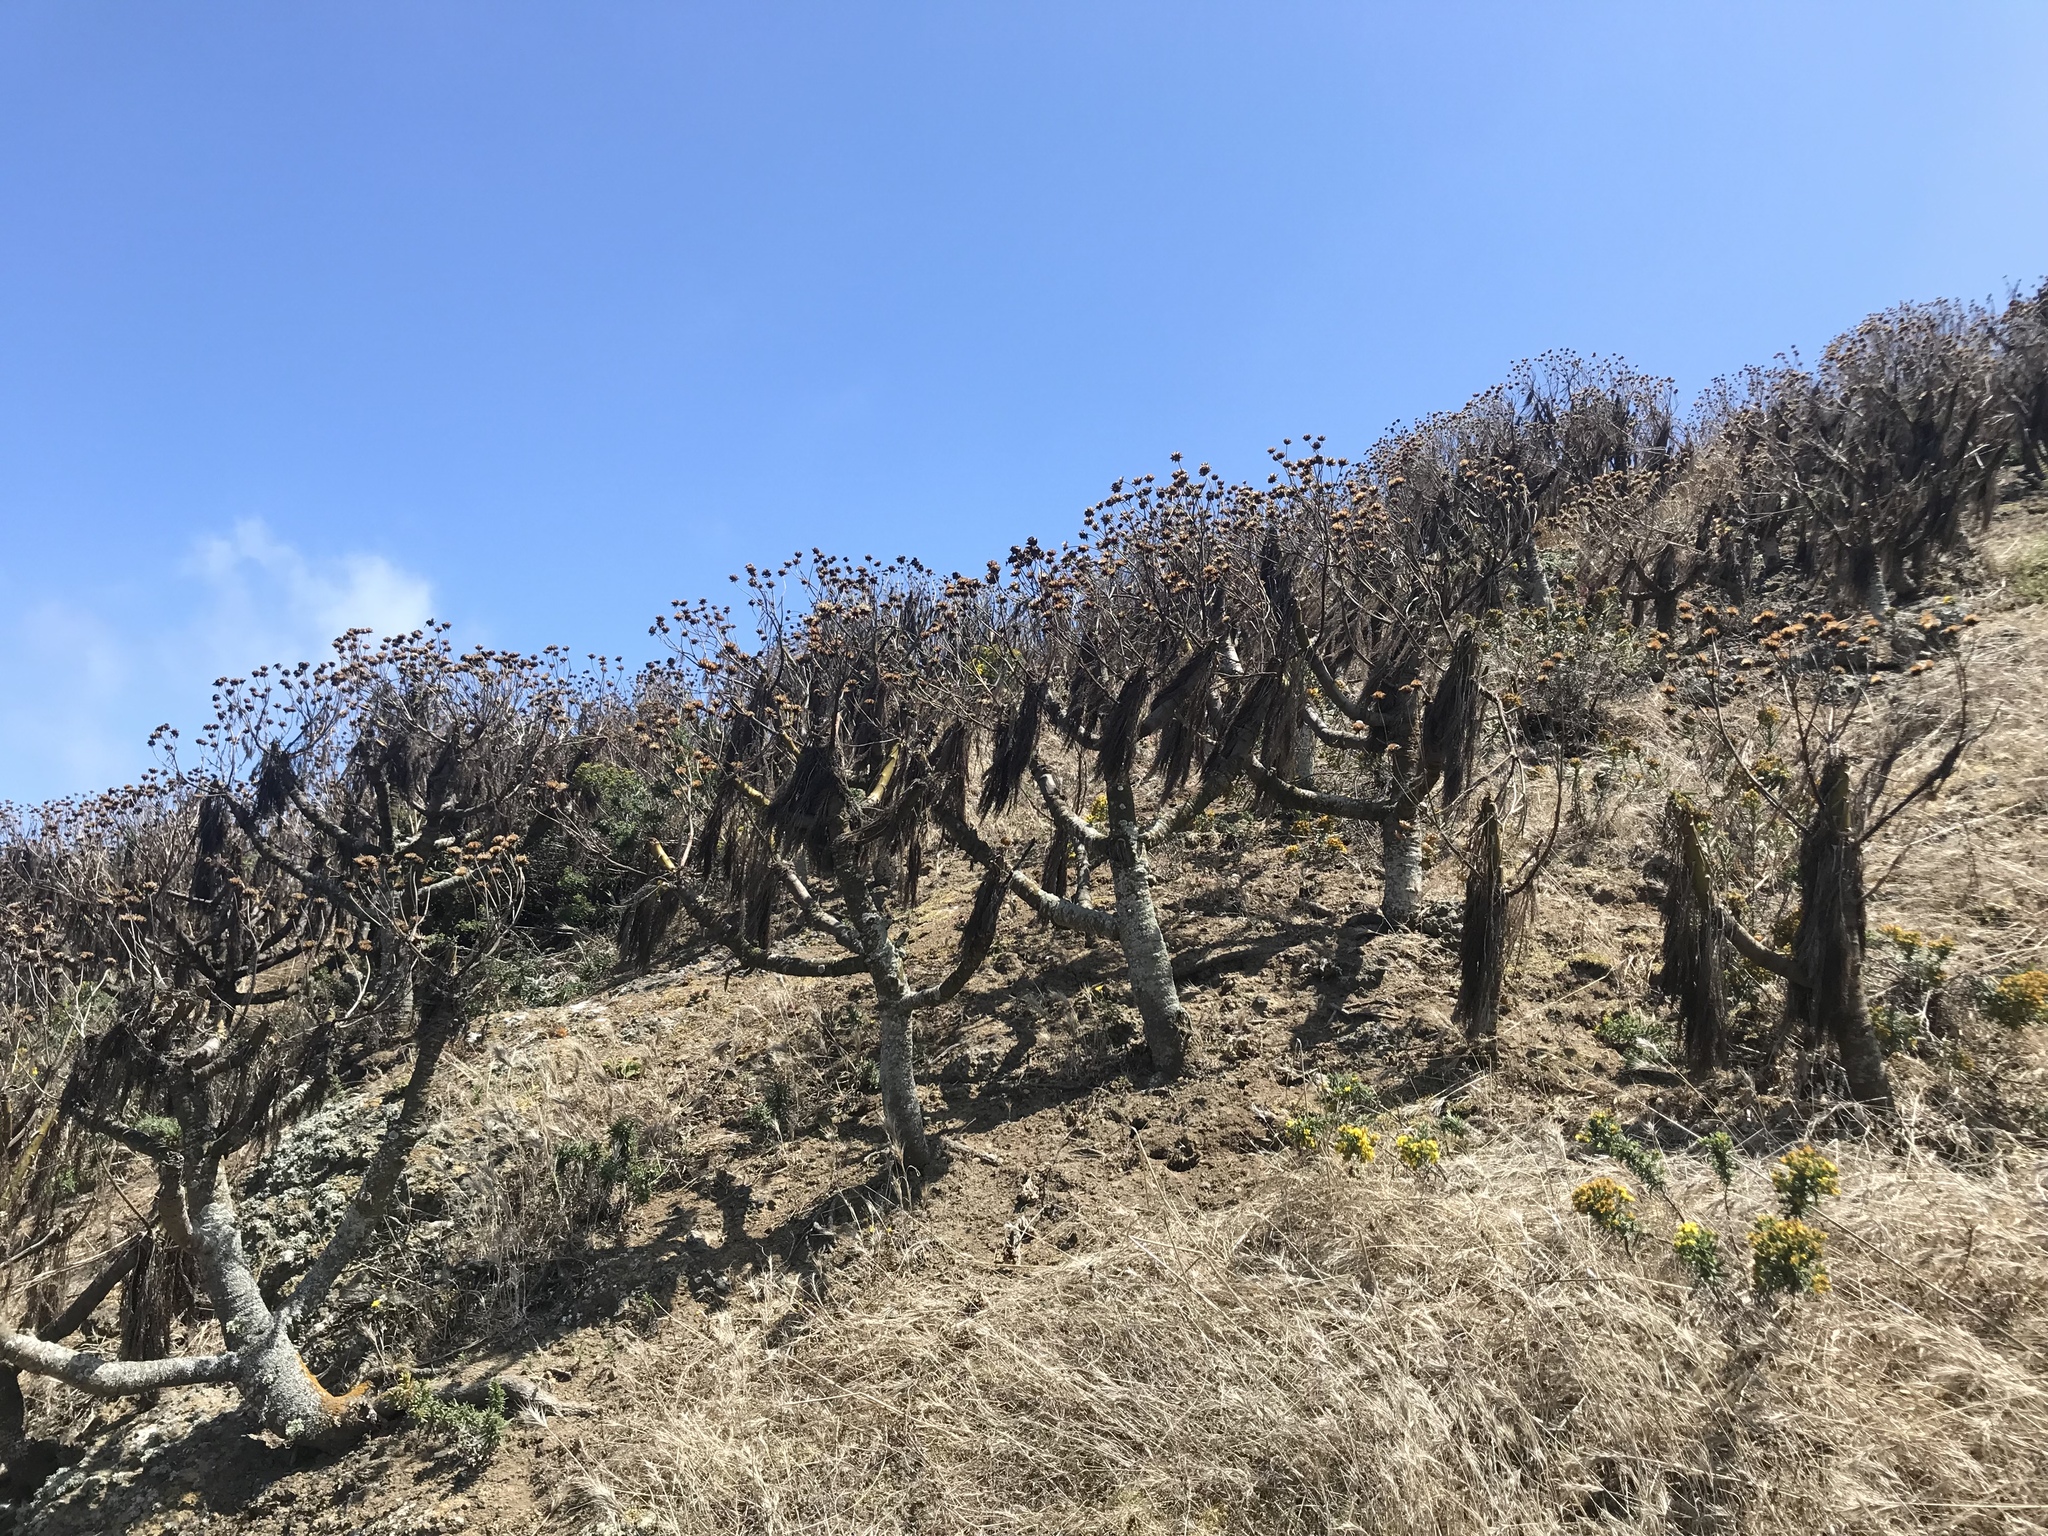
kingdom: Plantae
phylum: Tracheophyta
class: Magnoliopsida
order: Asterales
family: Asteraceae
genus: Coreopsis
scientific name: Coreopsis gigantea
